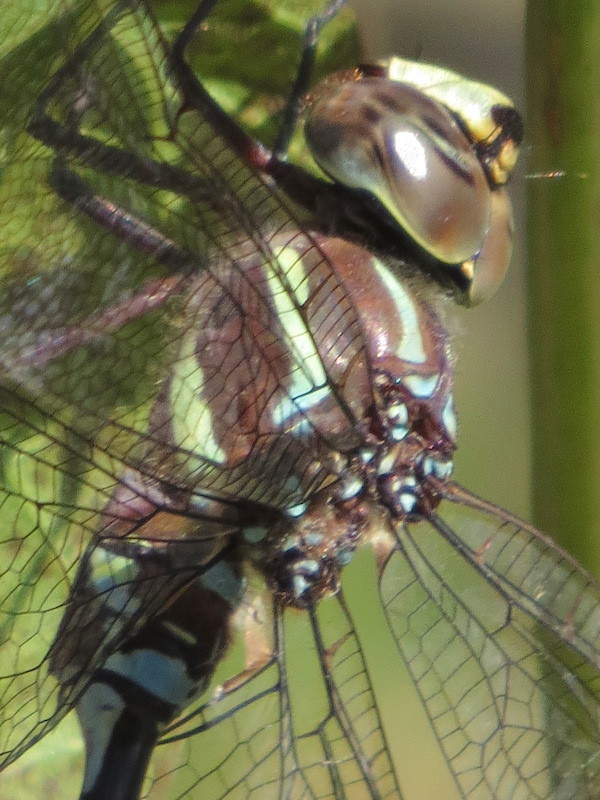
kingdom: Animalia
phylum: Arthropoda
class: Insecta
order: Odonata
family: Aeshnidae
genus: Aeshna
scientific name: Aeshna tuberculifera
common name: Aeschne à tubercules
